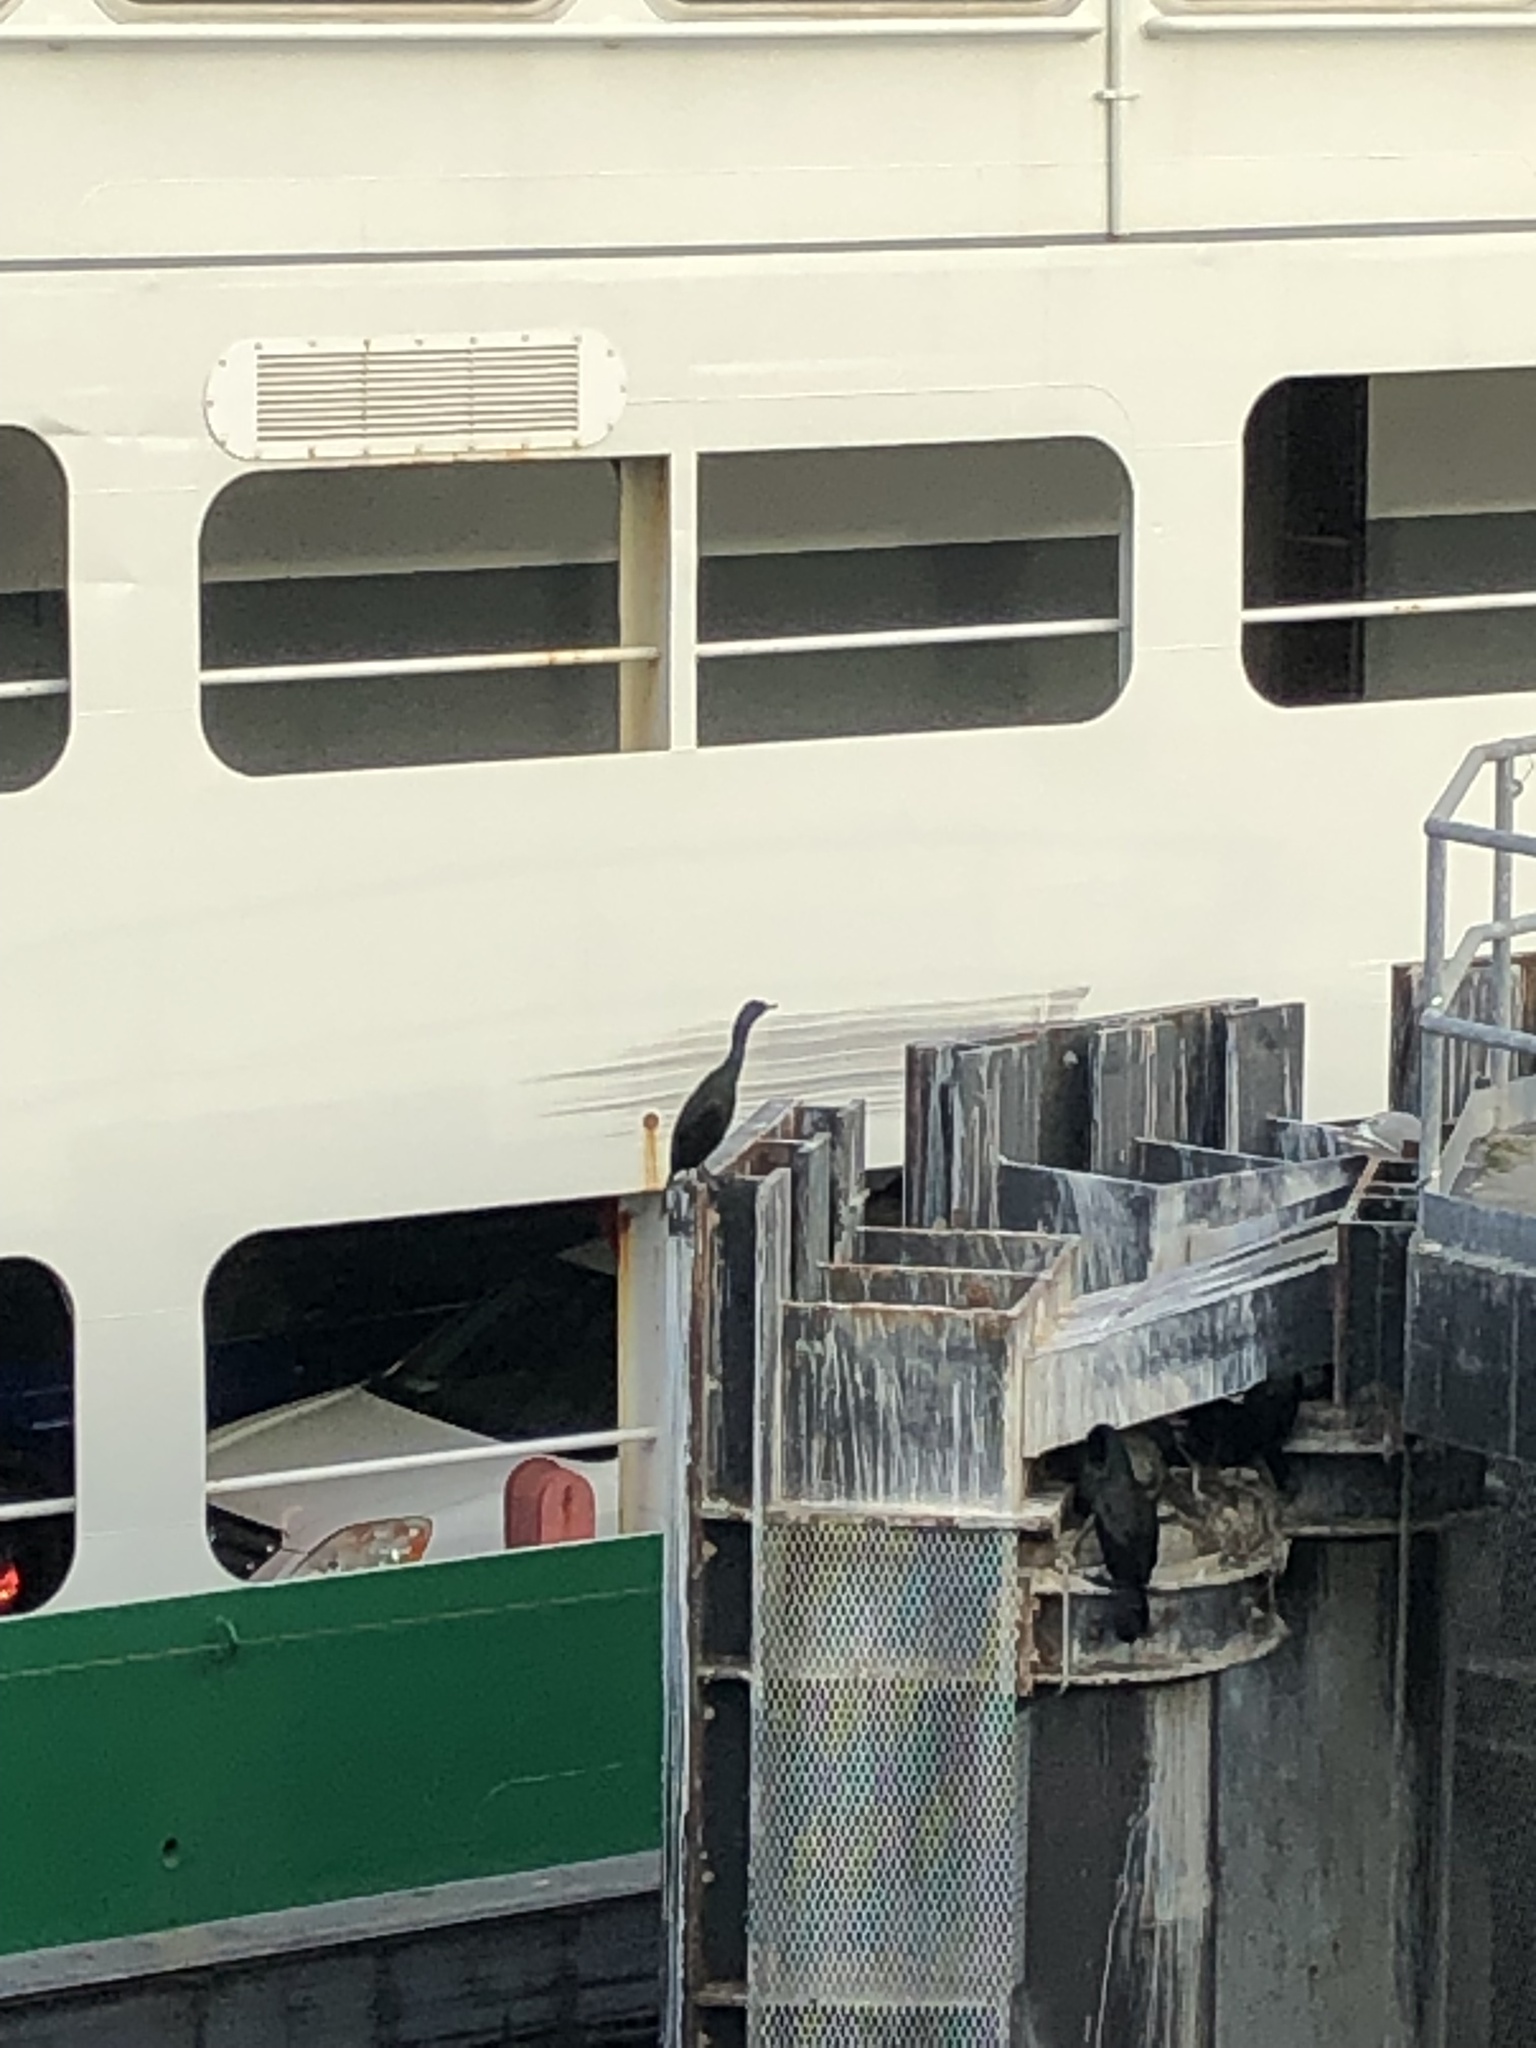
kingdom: Animalia
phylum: Chordata
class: Aves
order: Suliformes
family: Phalacrocoracidae
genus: Phalacrocorax
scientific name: Phalacrocorax pelagicus
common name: Pelagic cormorant
